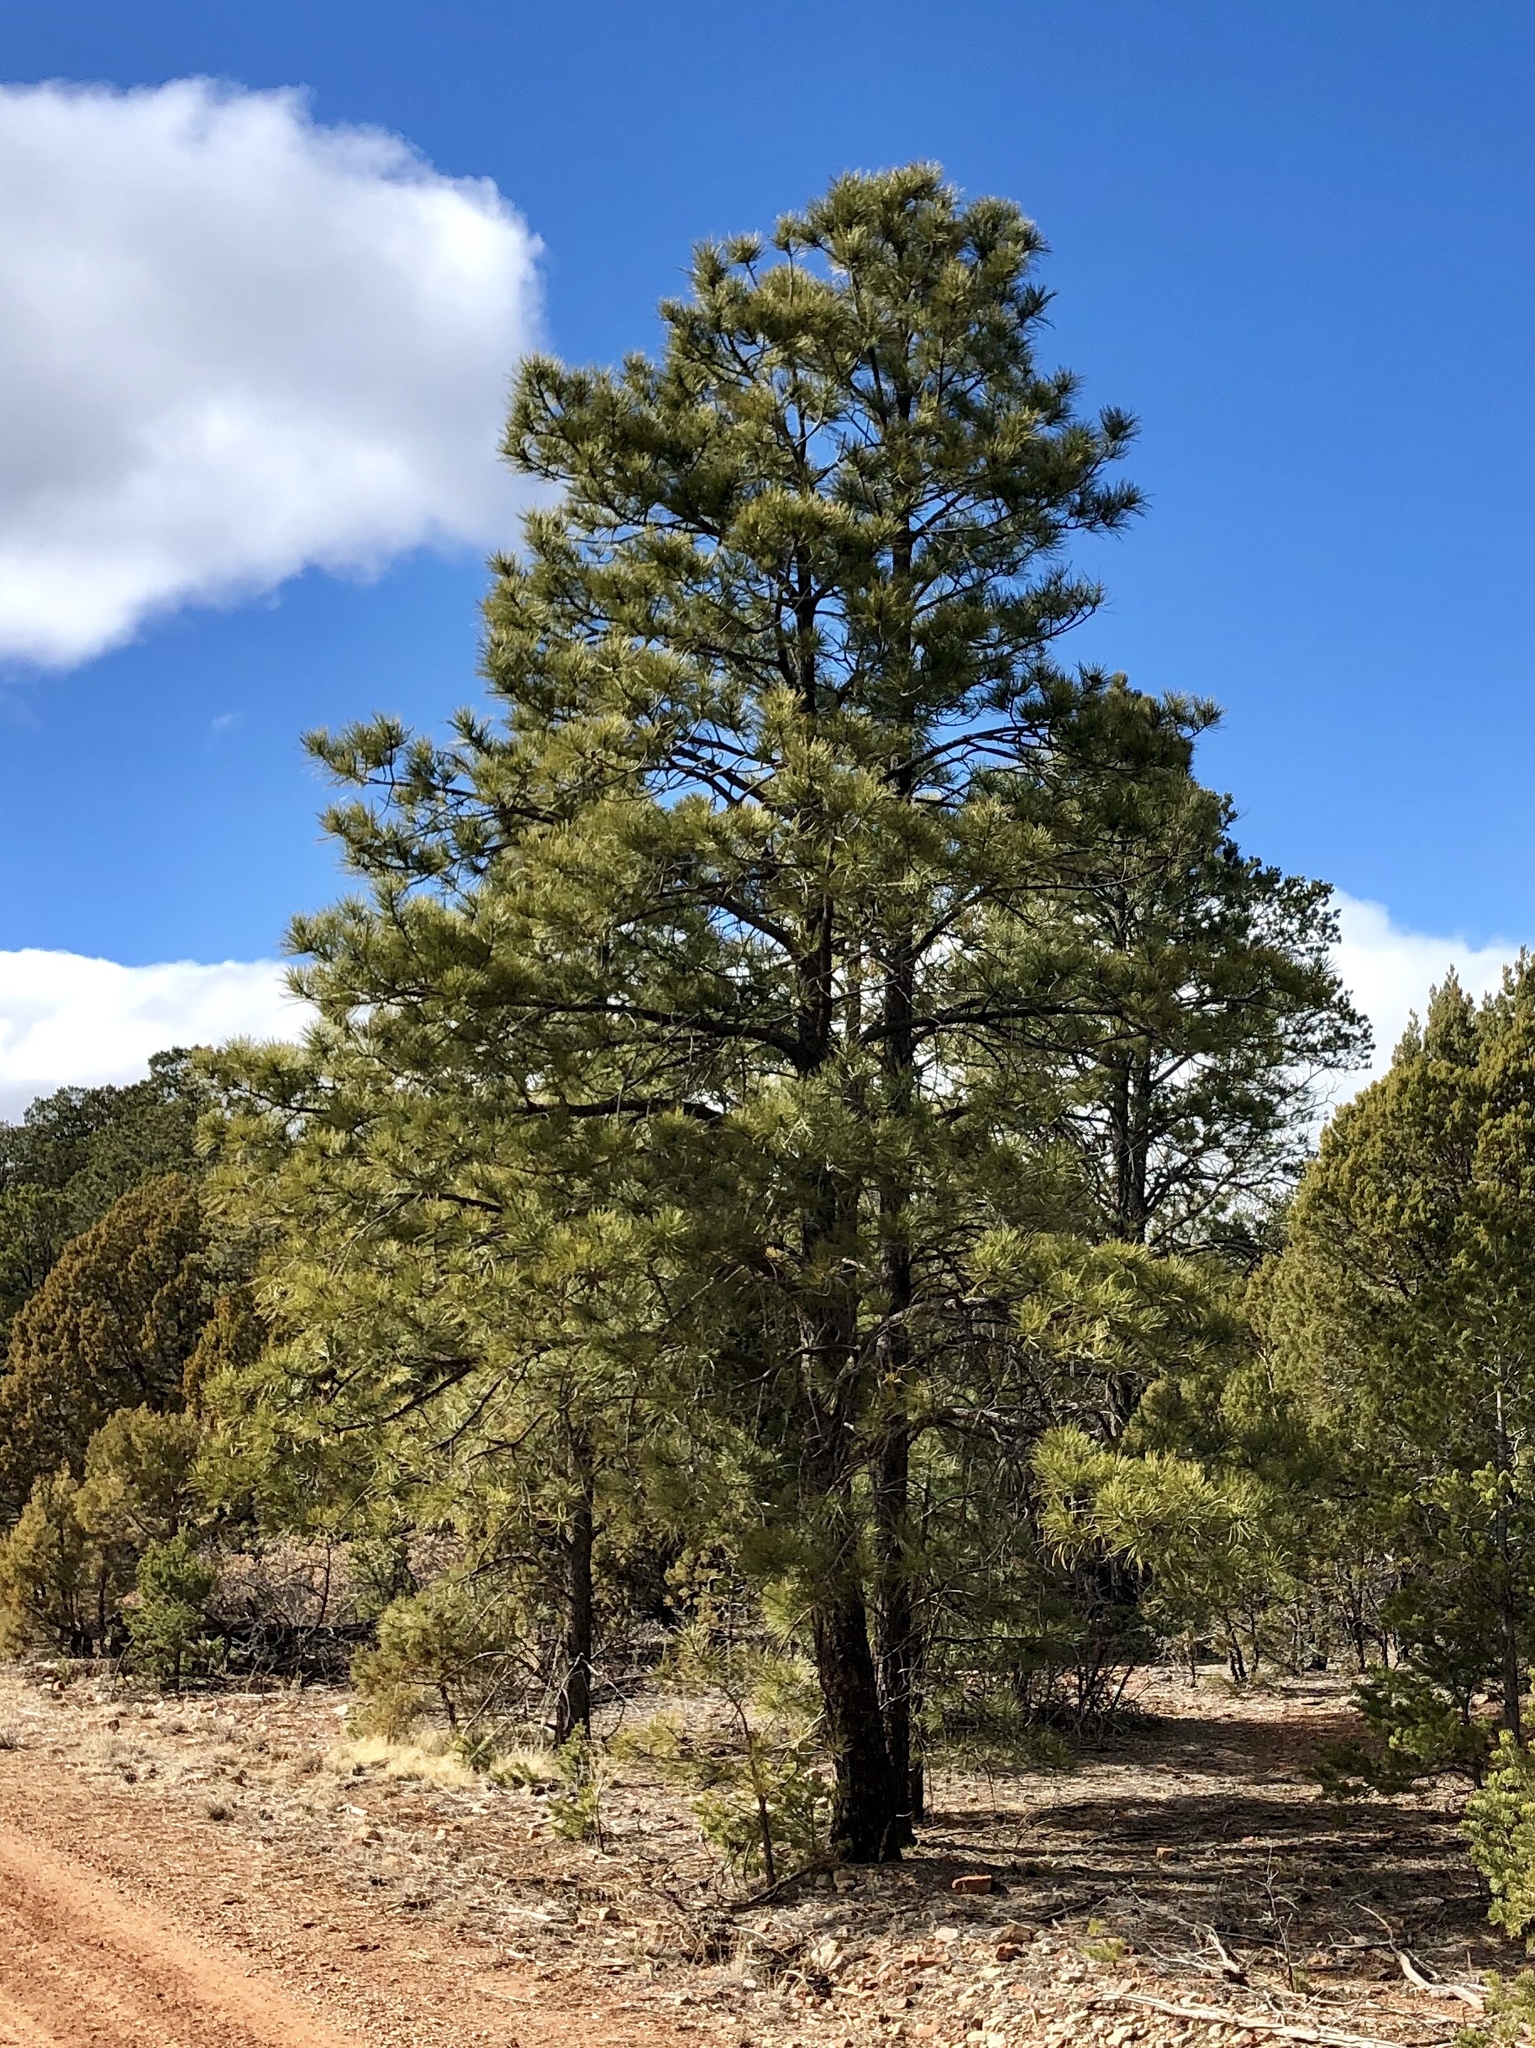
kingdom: Plantae
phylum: Tracheophyta
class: Pinopsida
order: Pinales
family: Pinaceae
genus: Pinus
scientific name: Pinus ponderosa
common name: Western yellow-pine
